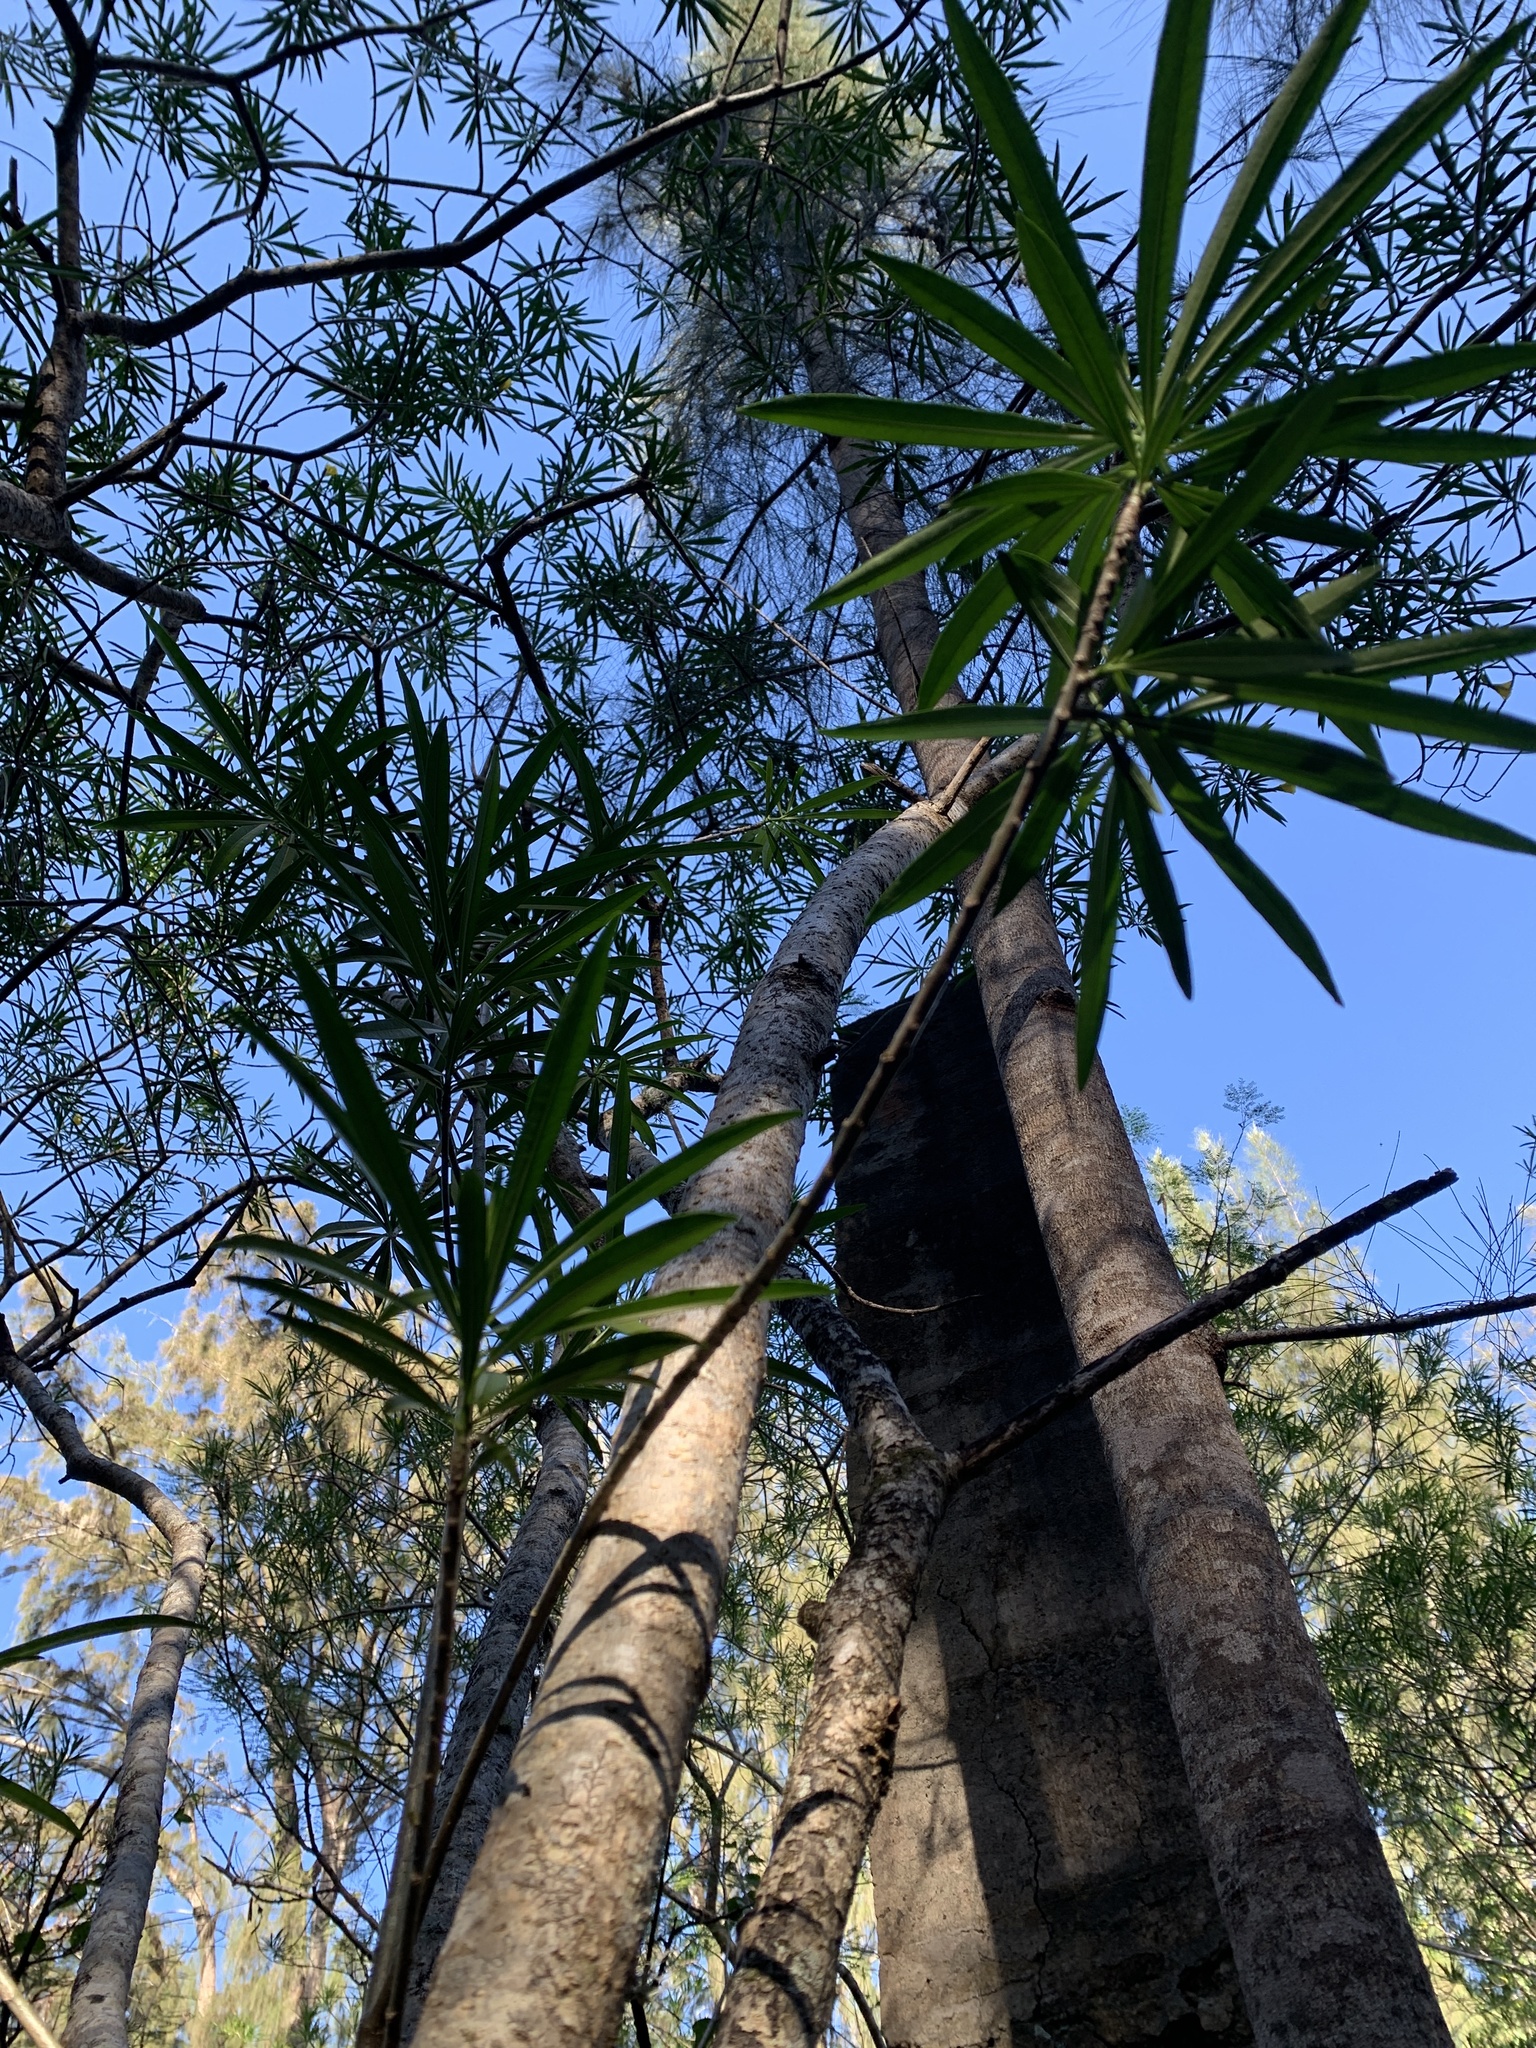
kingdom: Plantae
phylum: Tracheophyta
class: Magnoliopsida
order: Gentianales
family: Apocynaceae
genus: Cascabela
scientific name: Cascabela thevetia
